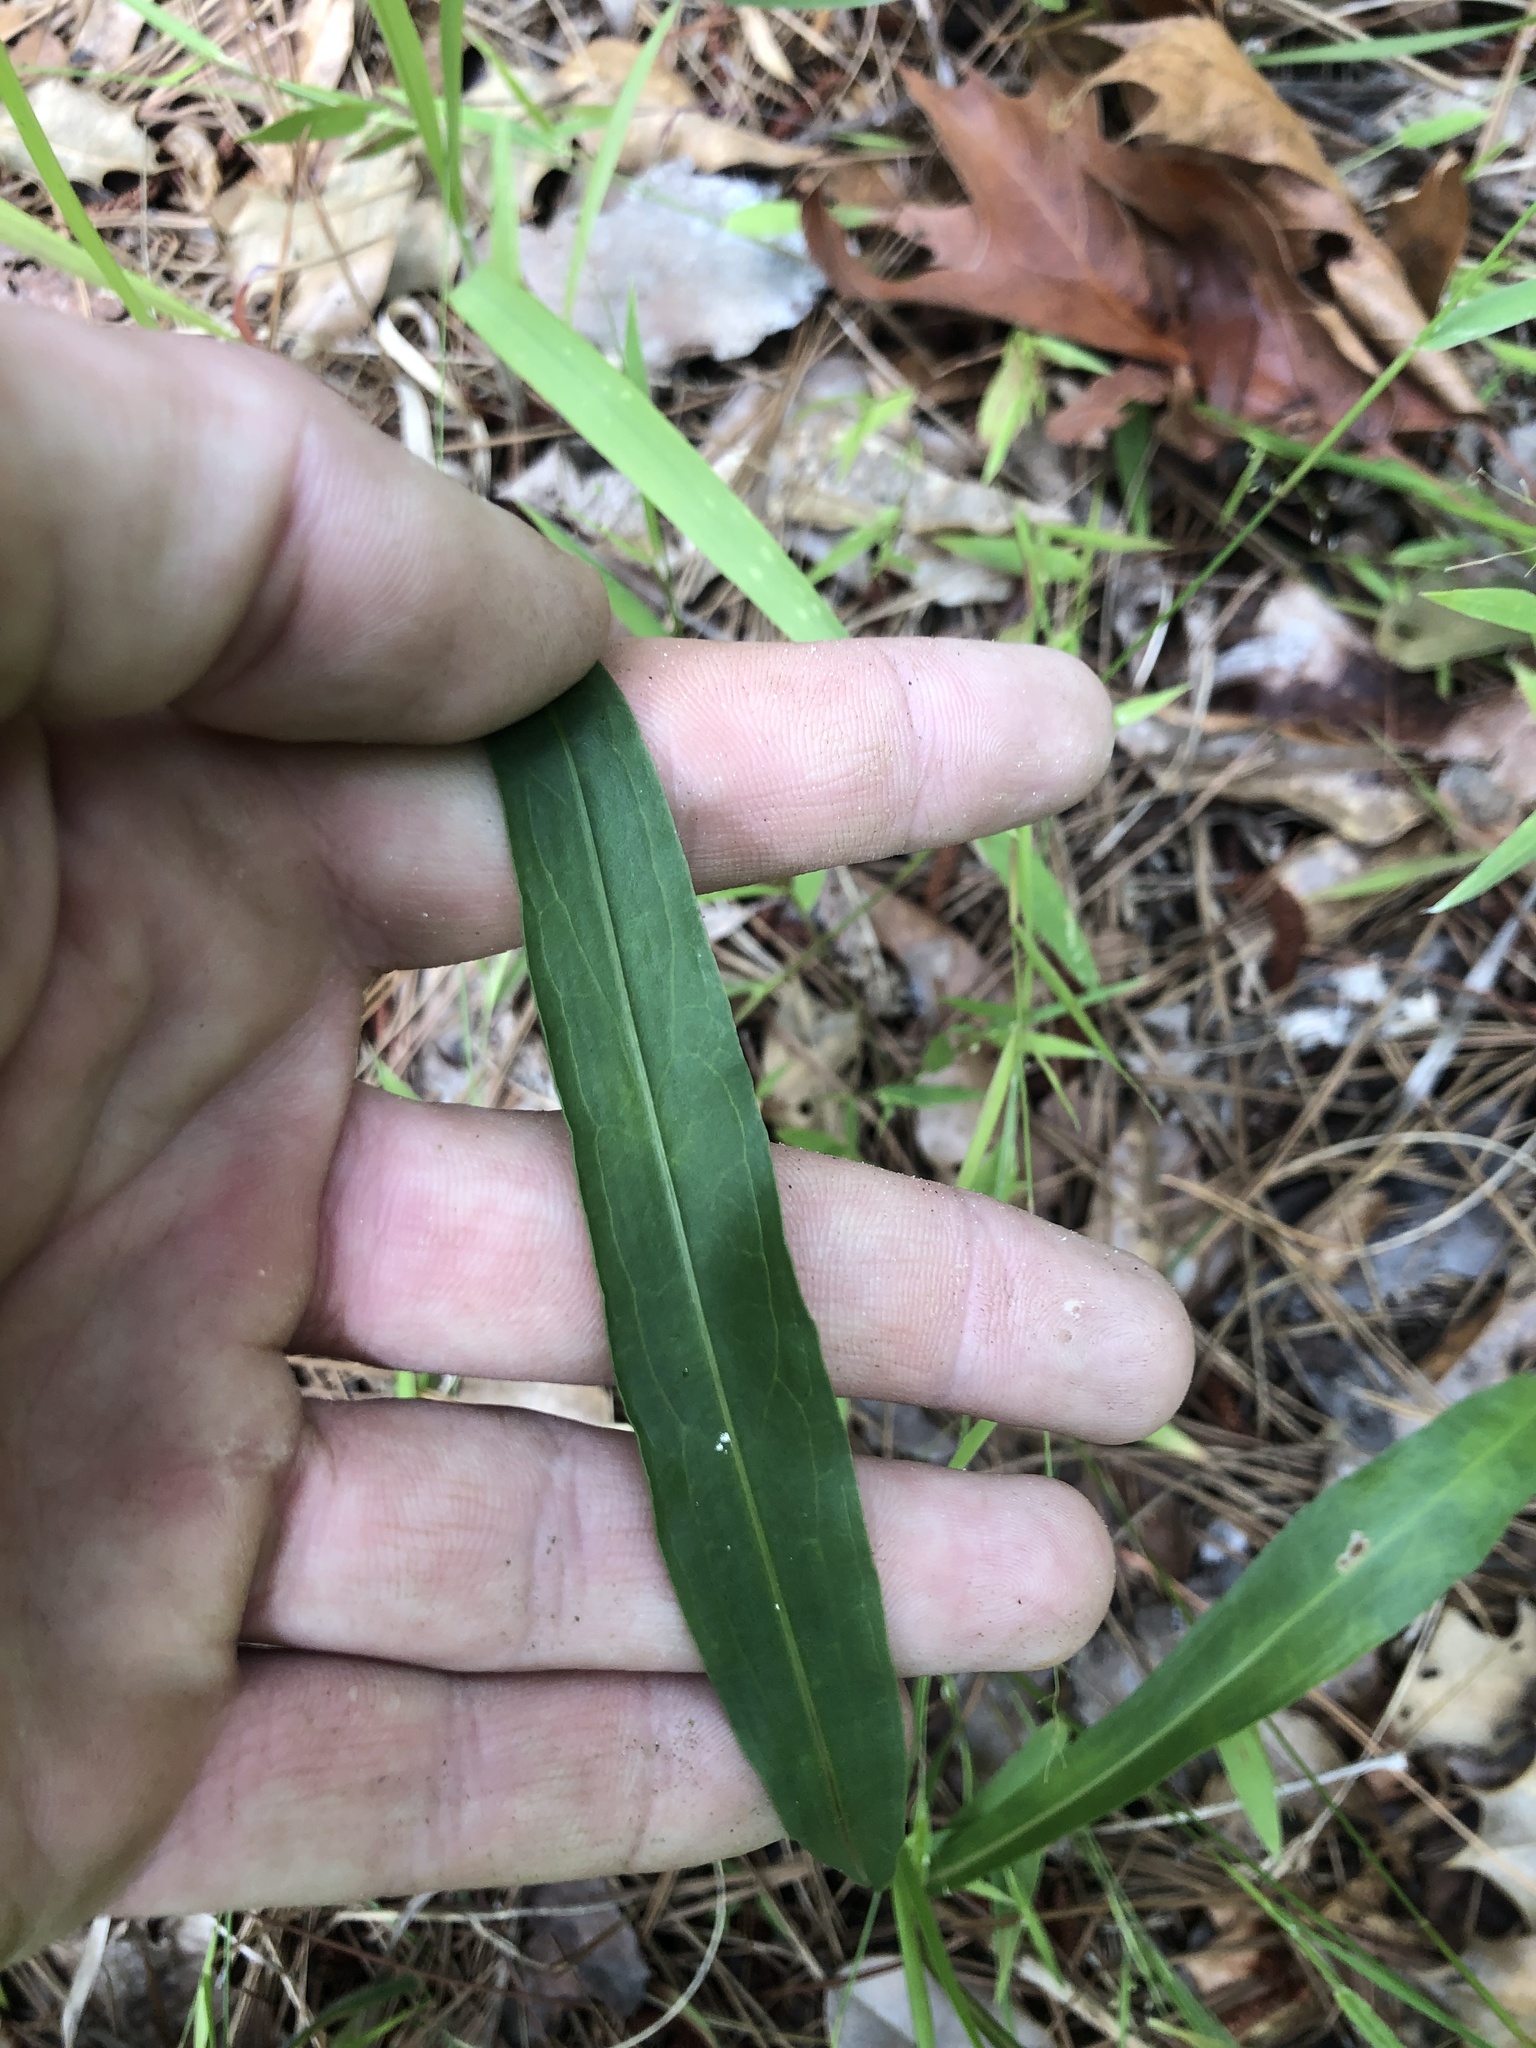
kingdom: Plantae
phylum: Tracheophyta
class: Magnoliopsida
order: Asterales
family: Asteraceae
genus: Liatris
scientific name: Liatris squarrulosa
